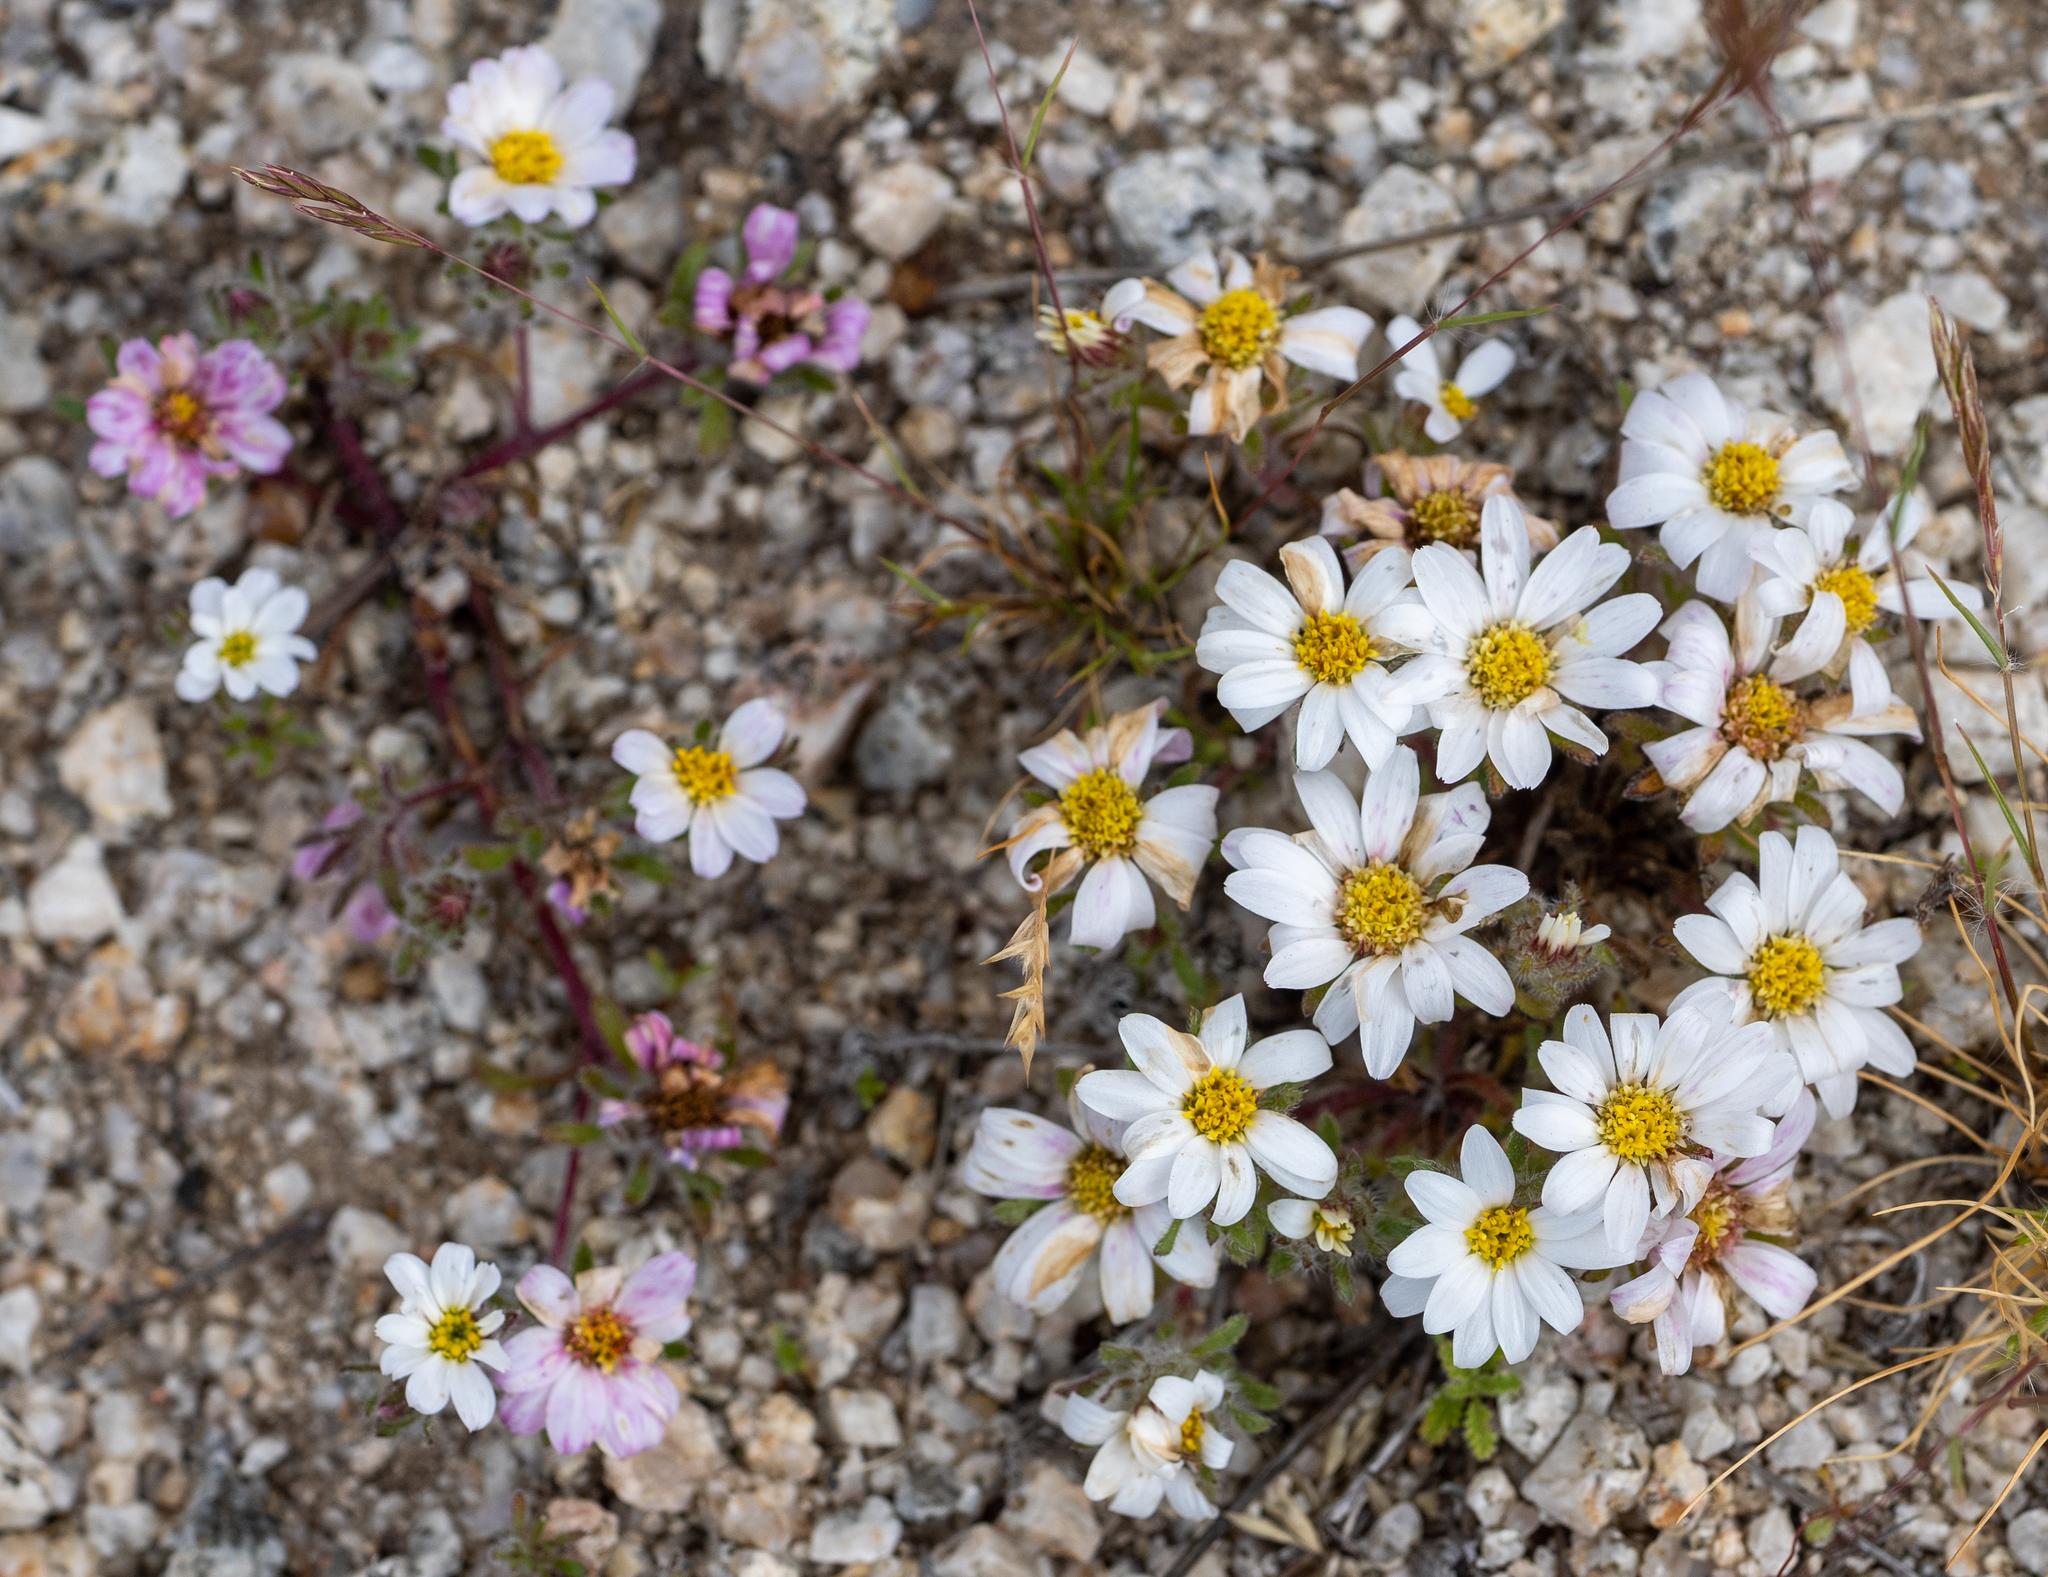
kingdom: Plantae
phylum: Tracheophyta
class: Magnoliopsida
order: Asterales
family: Asteraceae
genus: Monoptilon
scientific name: Monoptilon bellioides
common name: Bristly desertstar
